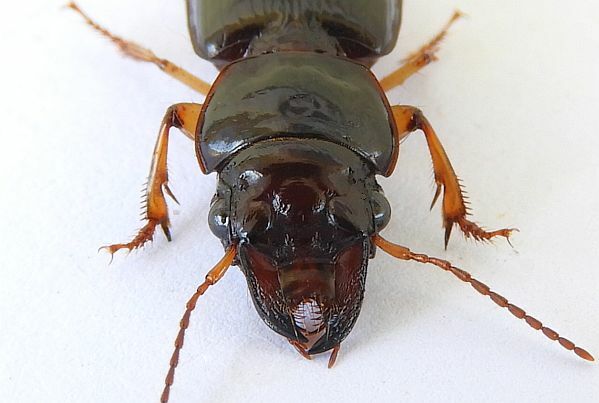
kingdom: Animalia
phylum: Arthropoda
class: Insecta
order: Coleoptera
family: Carabidae
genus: Polpochila
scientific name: Polpochila erro
